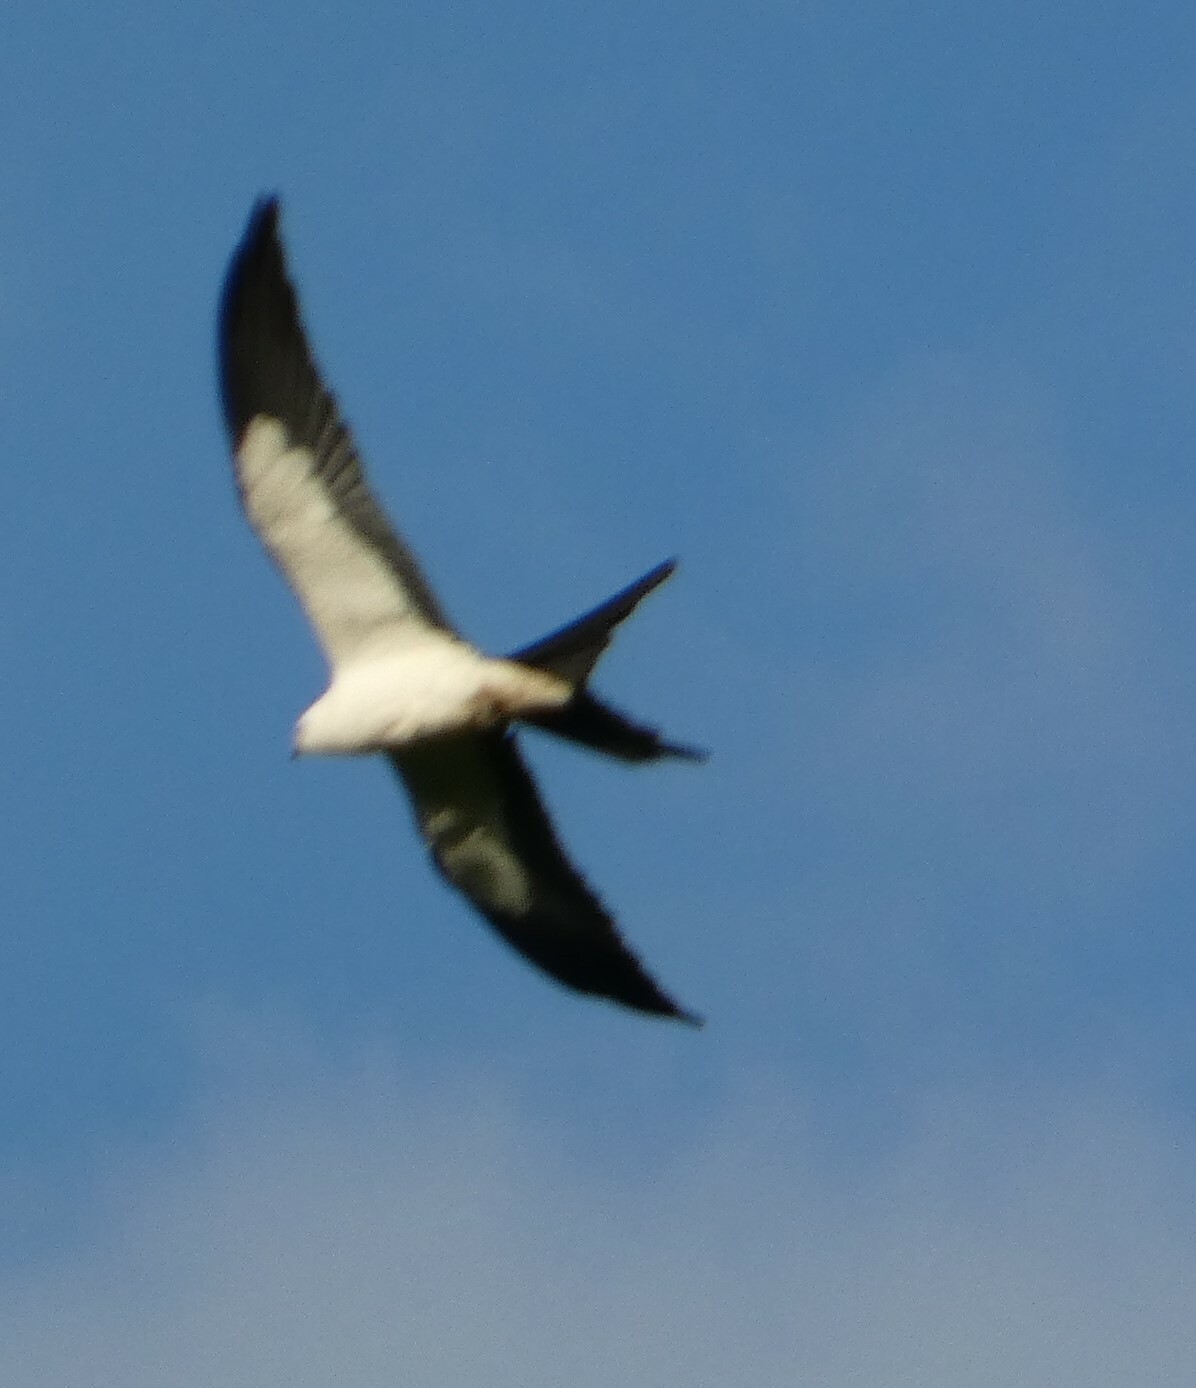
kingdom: Animalia
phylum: Chordata
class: Aves
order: Accipitriformes
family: Accipitridae
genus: Elanoides
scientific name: Elanoides forficatus
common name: Swallow-tailed kite
